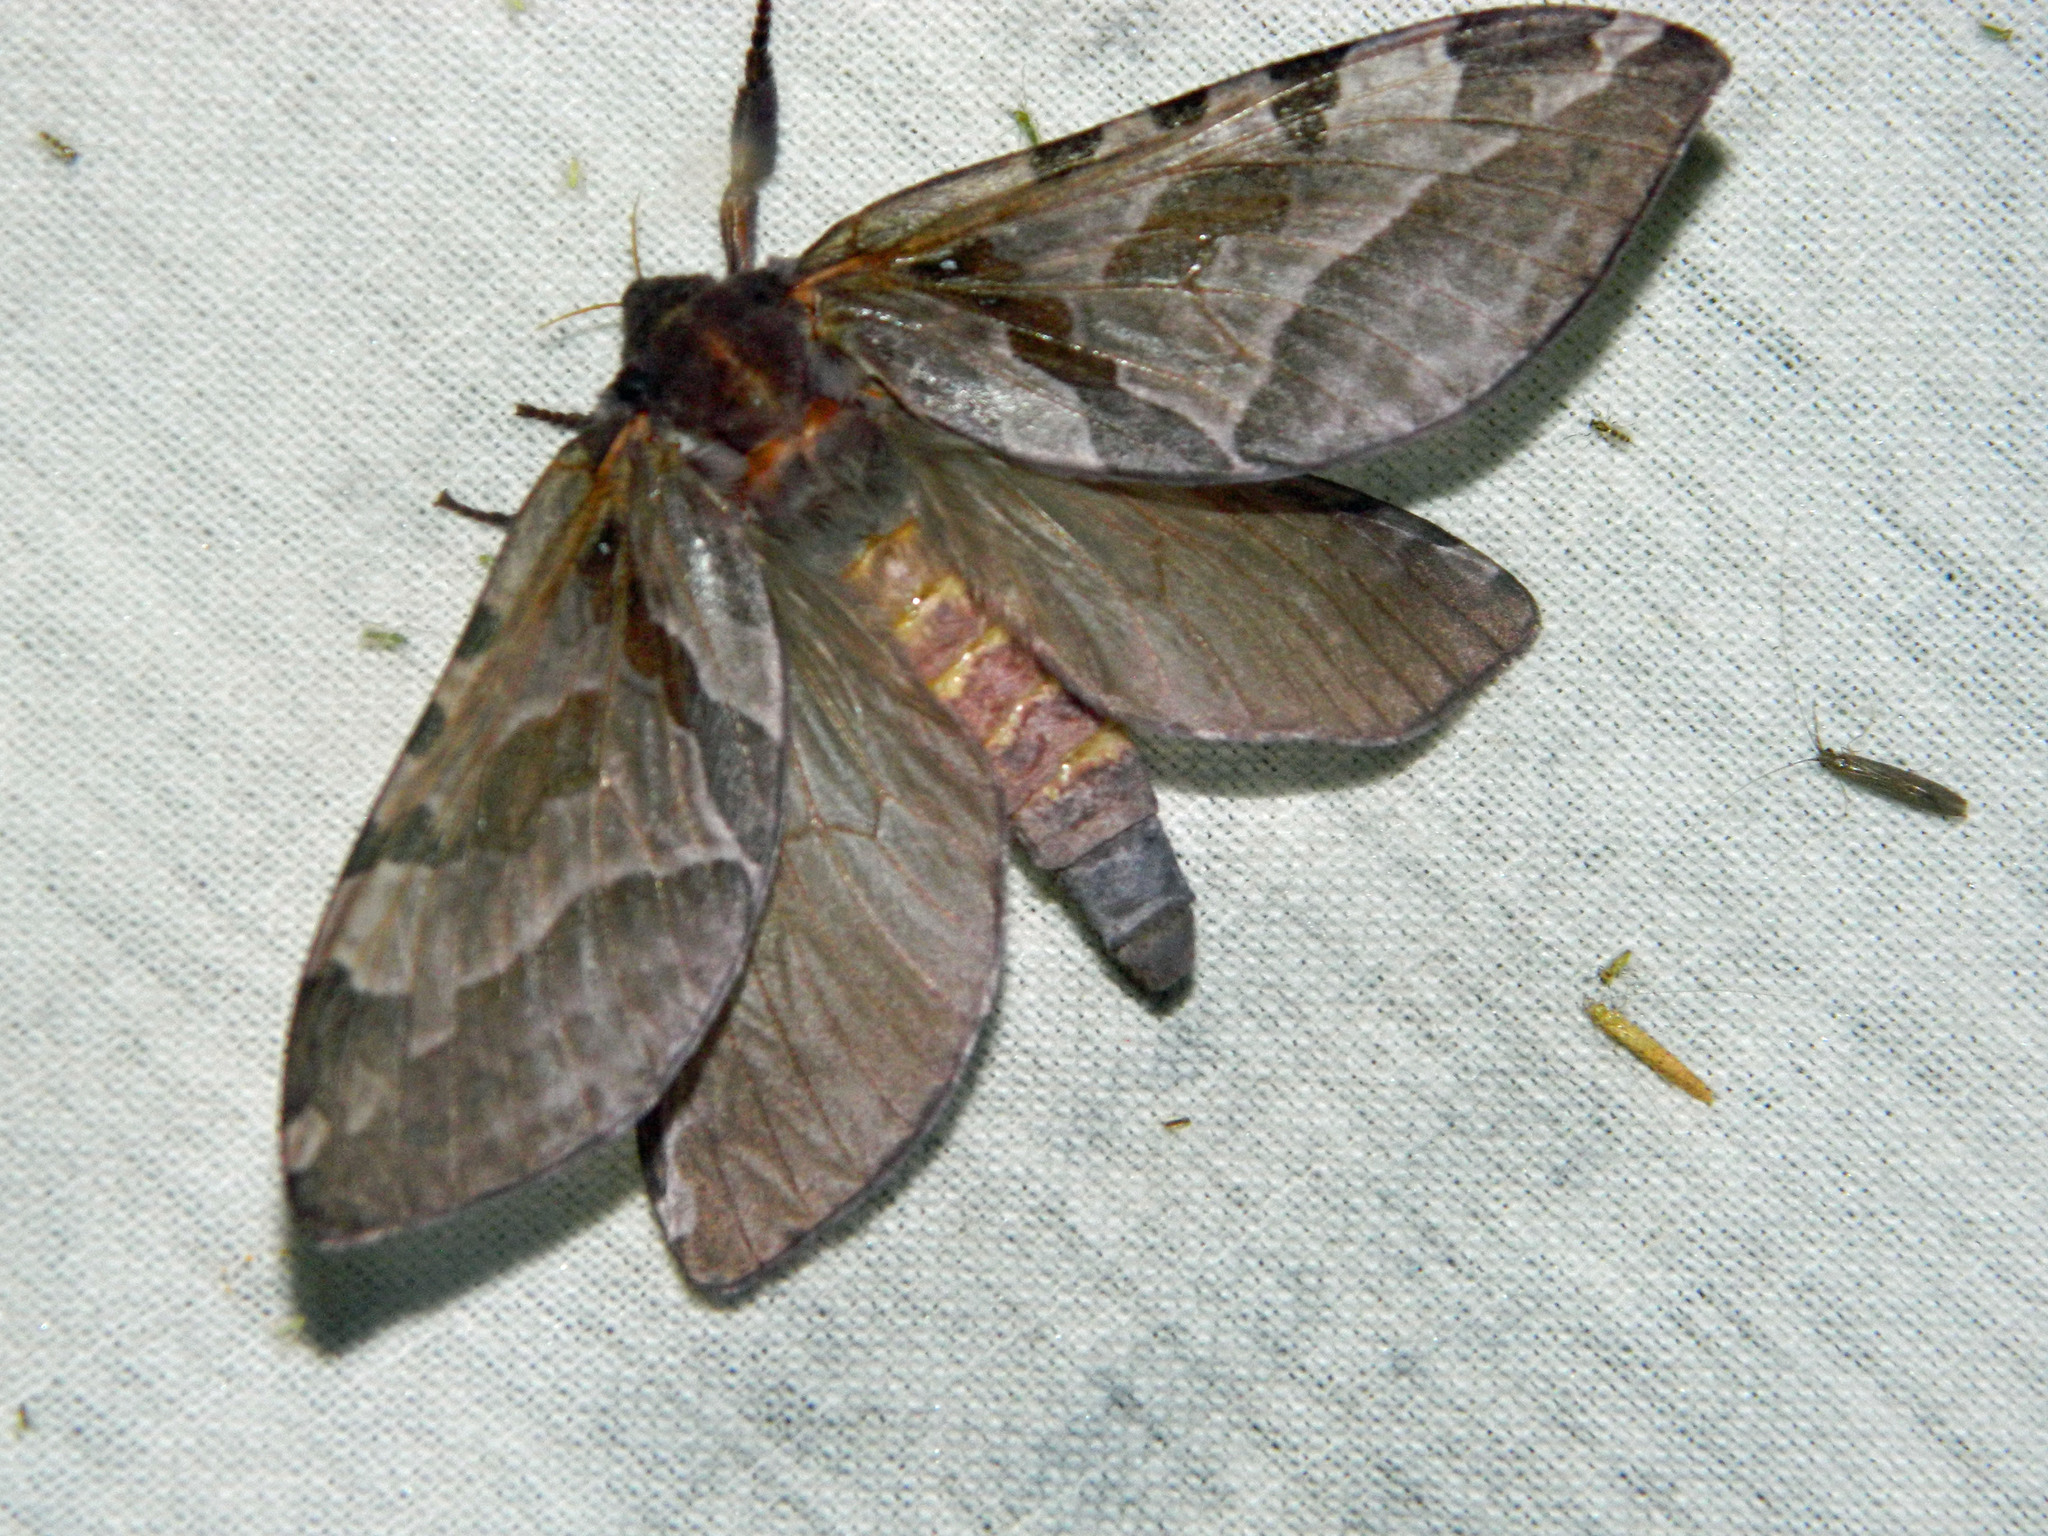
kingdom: Animalia
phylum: Arthropoda
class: Insecta
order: Lepidoptera
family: Hepialidae
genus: Sthenopis
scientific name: Sthenopis purpurascens
